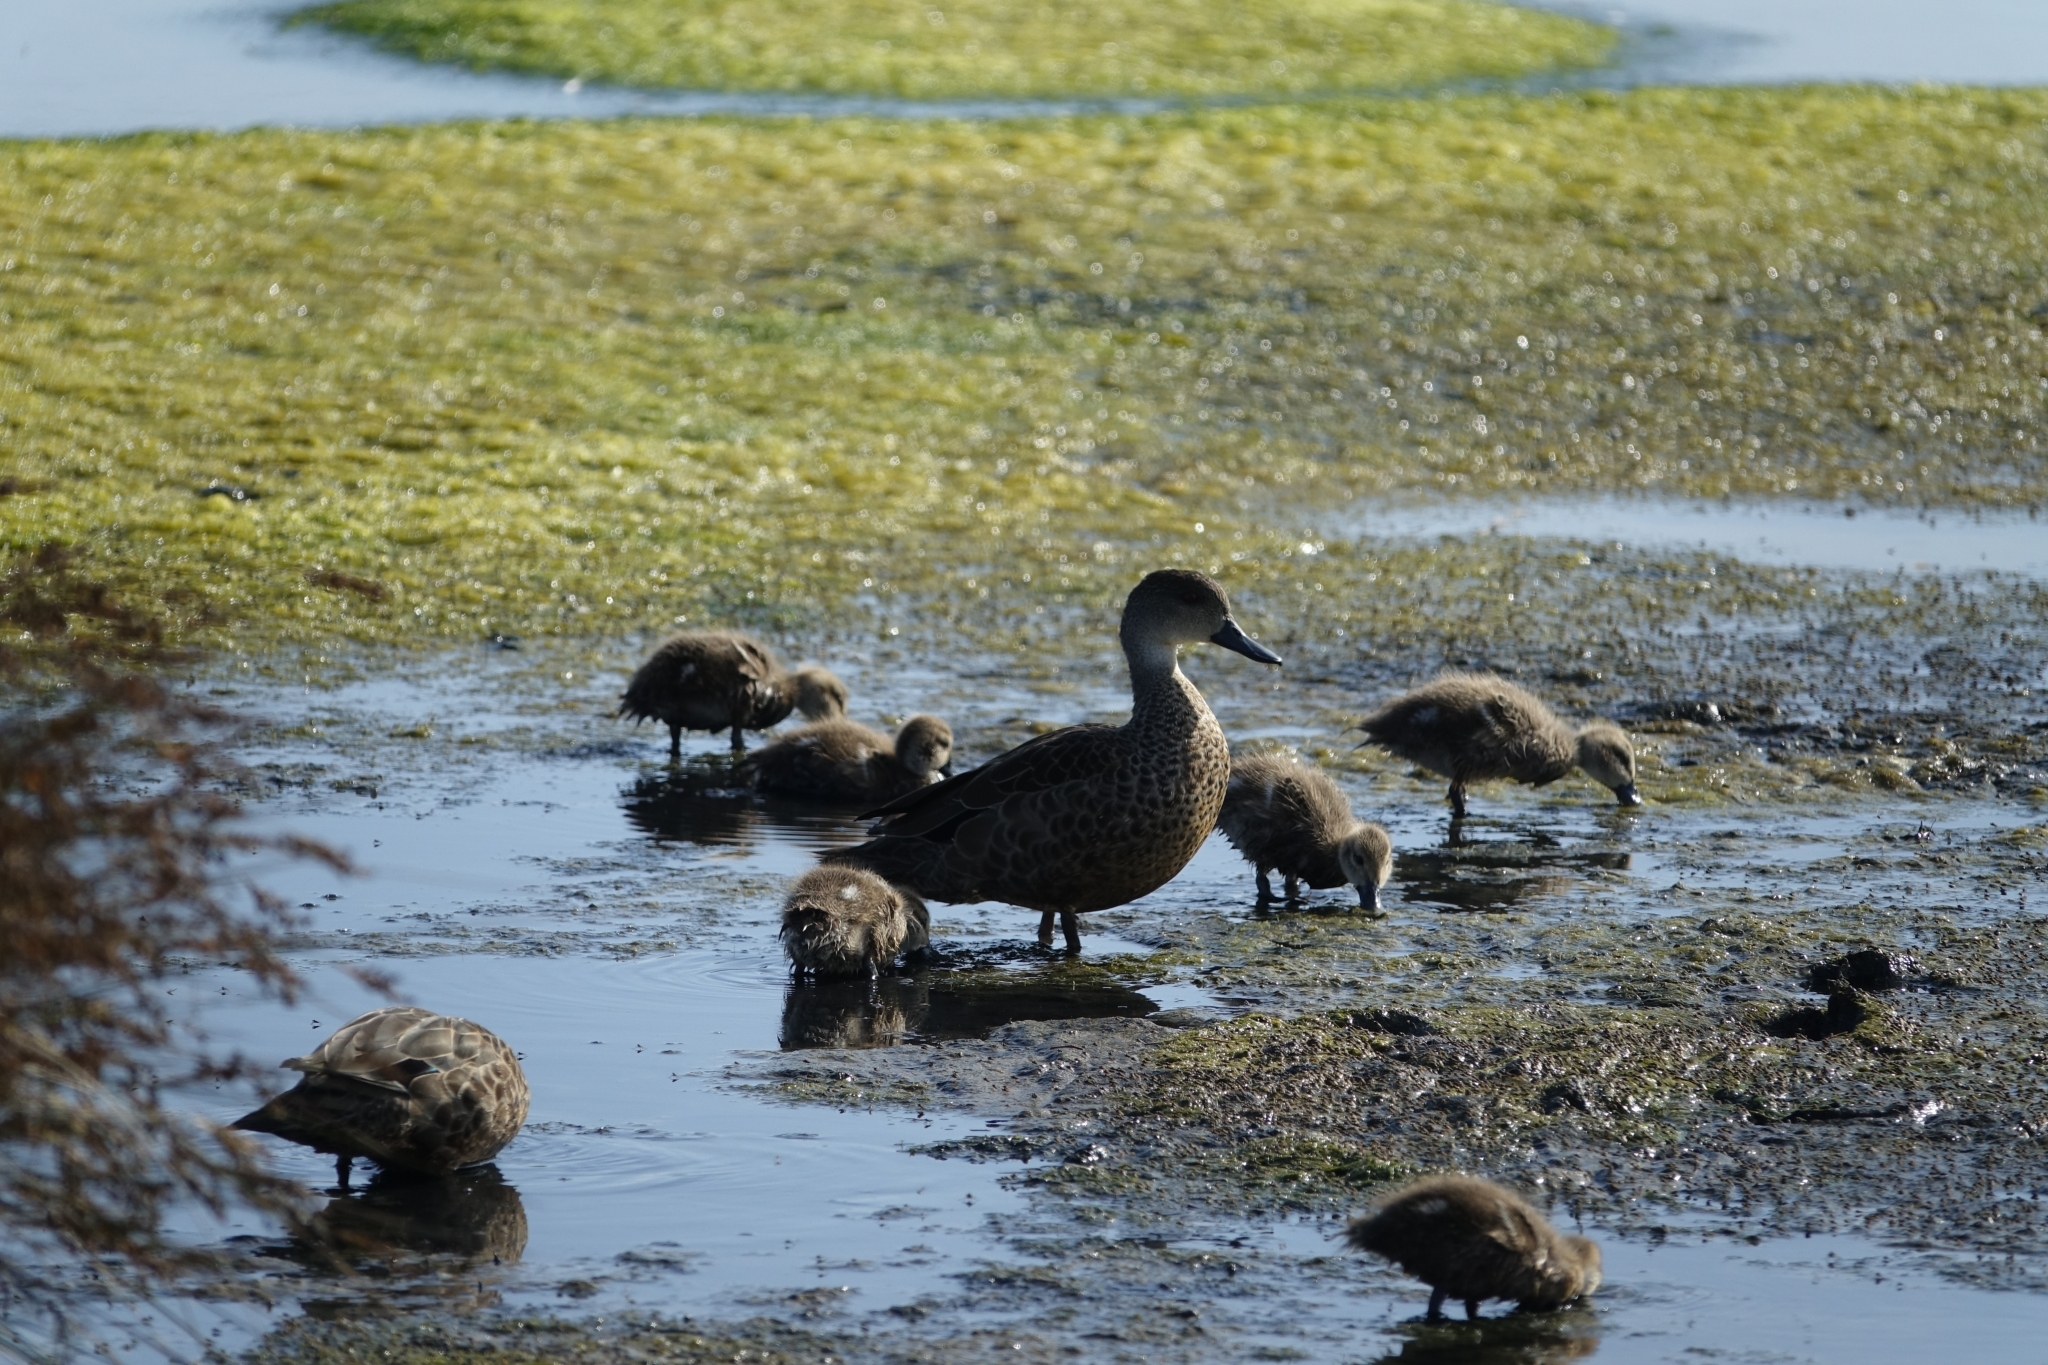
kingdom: Animalia
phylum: Chordata
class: Aves
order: Anseriformes
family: Anatidae
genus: Anas
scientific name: Anas gracilis
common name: Grey teal
